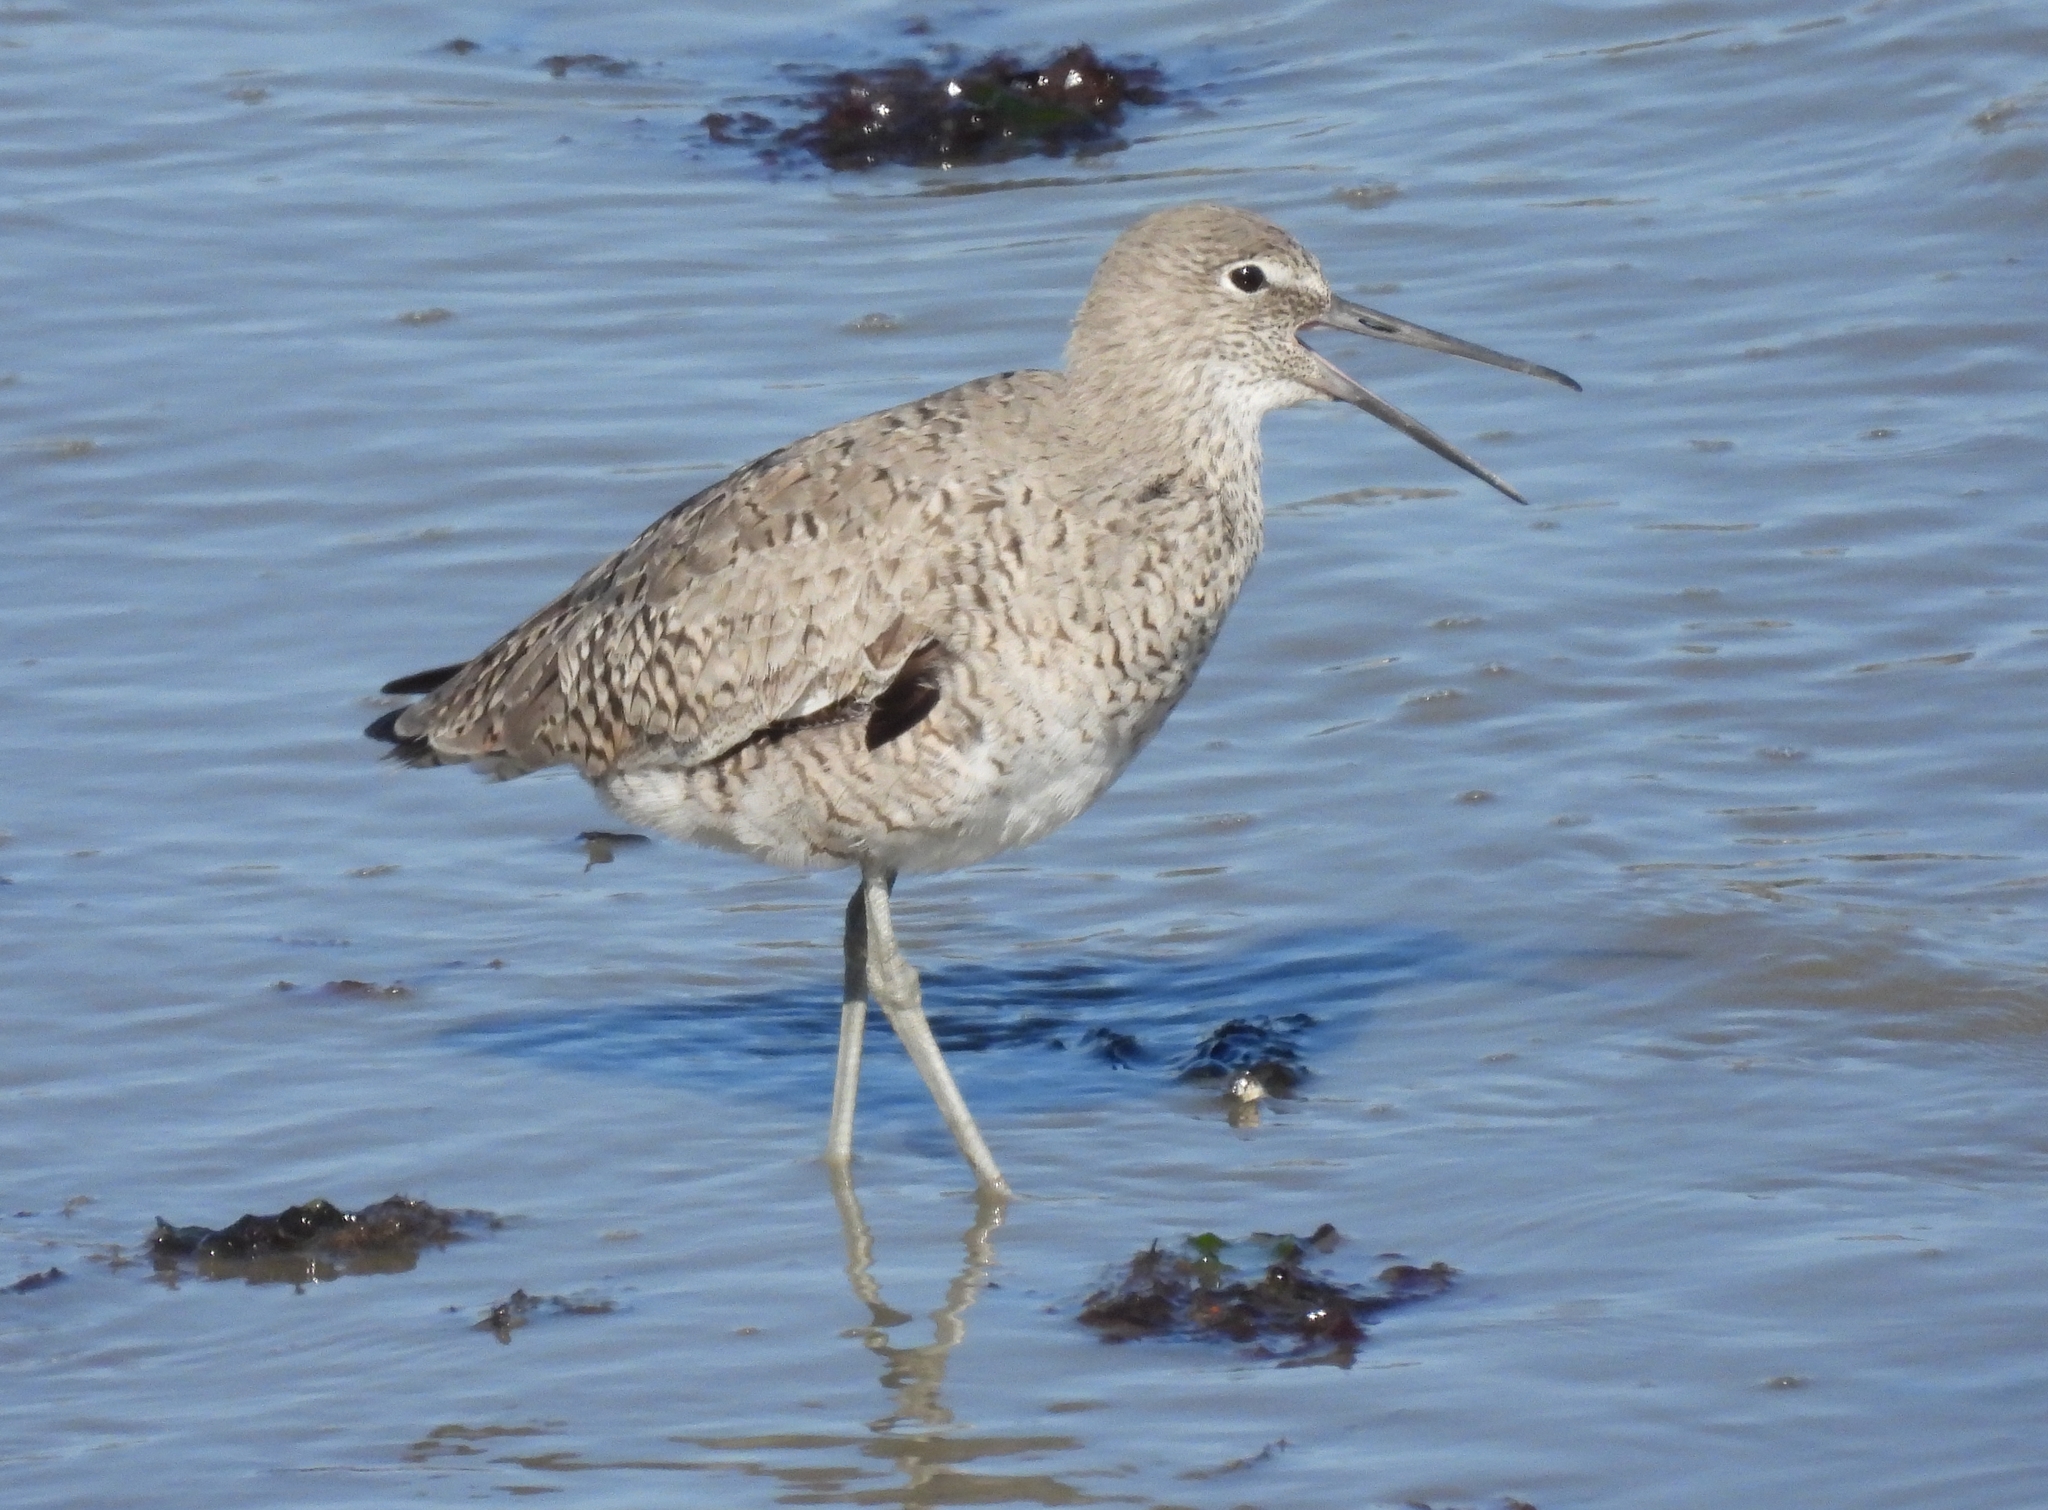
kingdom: Animalia
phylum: Chordata
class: Aves
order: Charadriiformes
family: Scolopacidae
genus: Tringa
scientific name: Tringa semipalmata
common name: Willet
